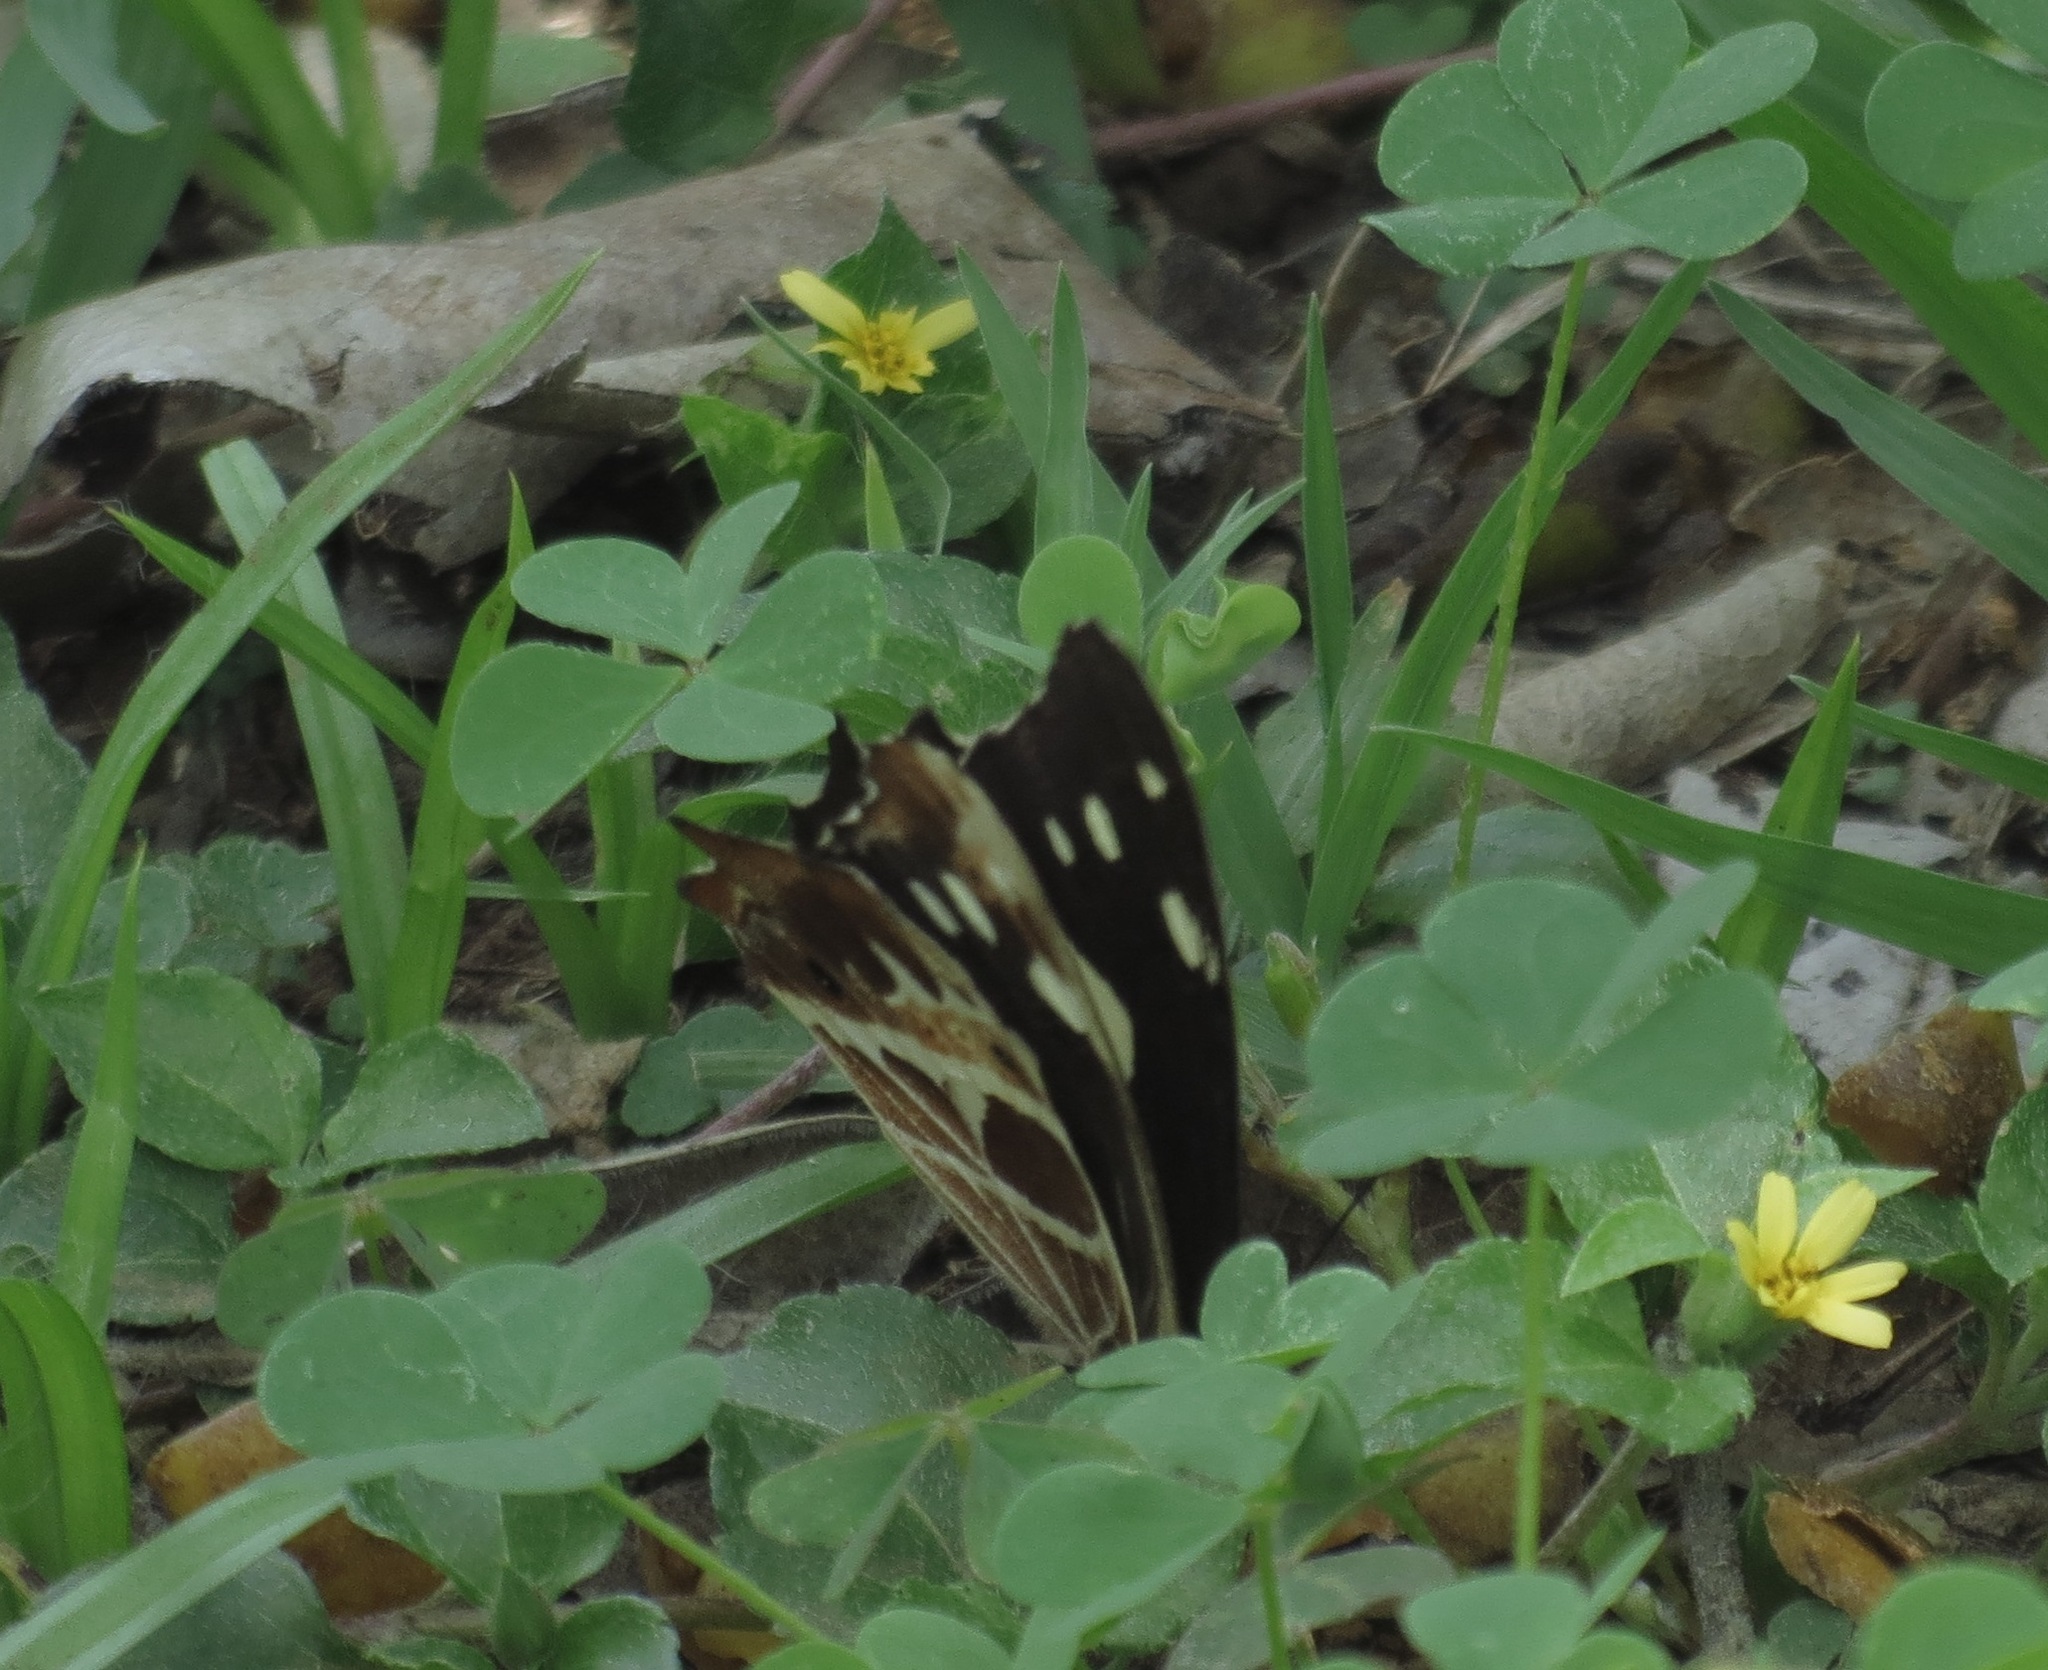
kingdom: Animalia
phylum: Arthropoda
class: Insecta
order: Lepidoptera
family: Nymphalidae
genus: Oxeoschistus
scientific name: Oxeoschistus tauropolis
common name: Starred oxeo
